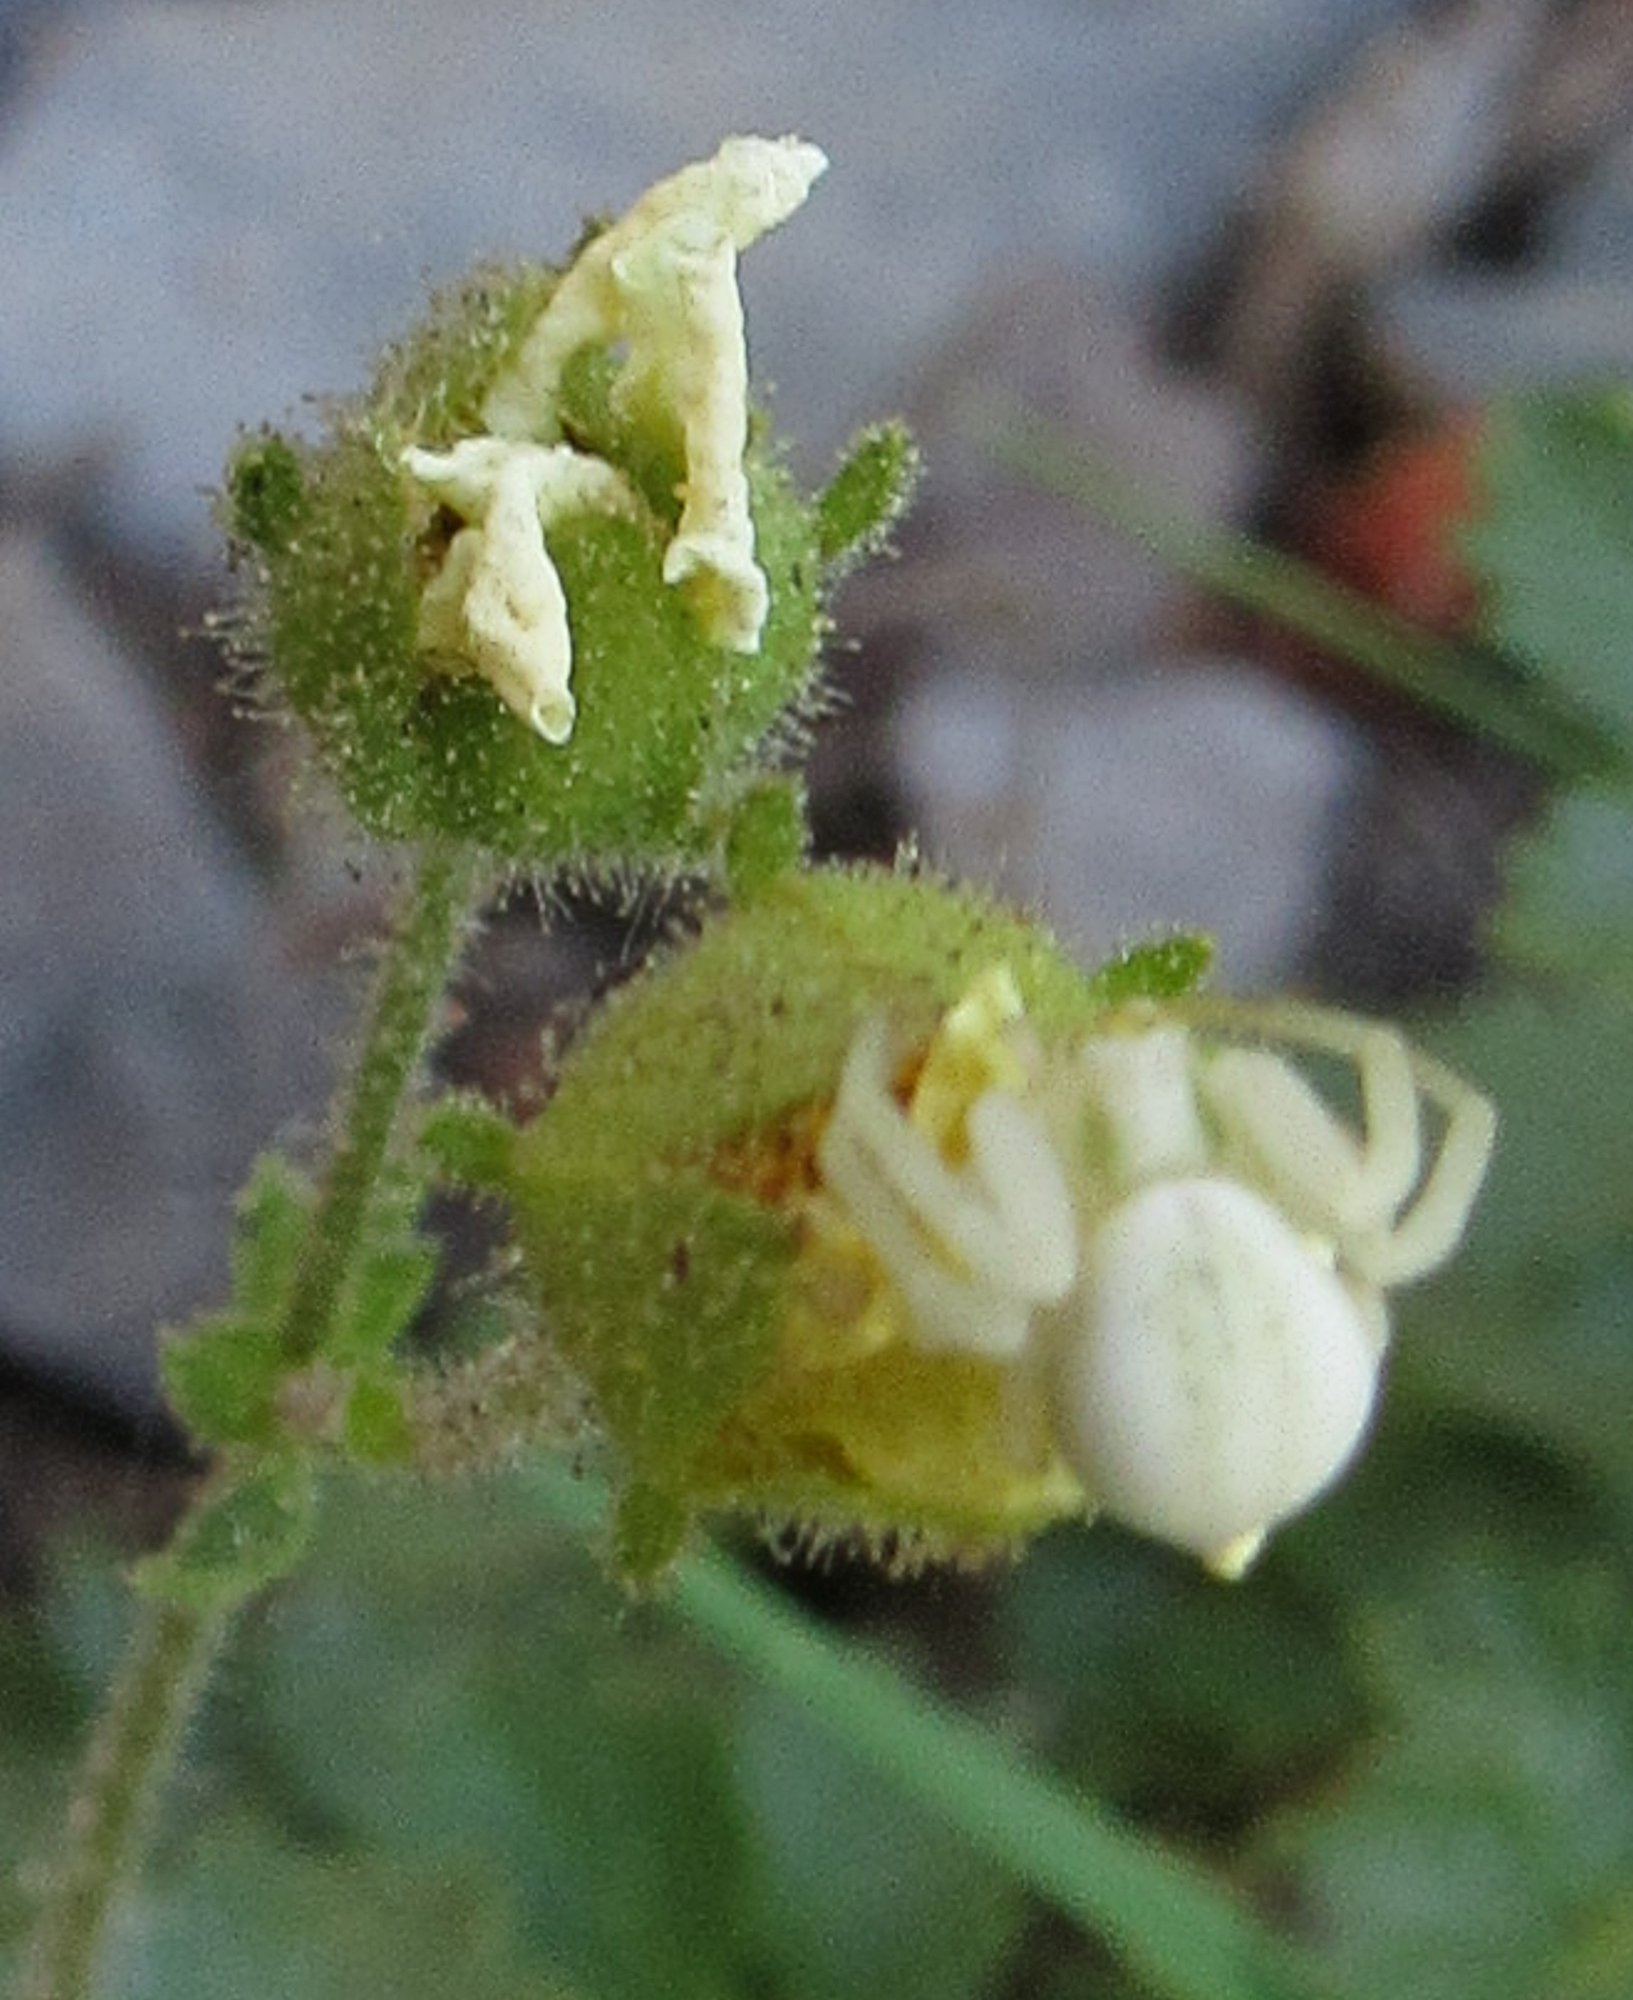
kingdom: Animalia
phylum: Arthropoda
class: Arachnida
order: Araneae
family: Thomisidae
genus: Misumena
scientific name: Misumena vatia
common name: Goldenrod crab spider
